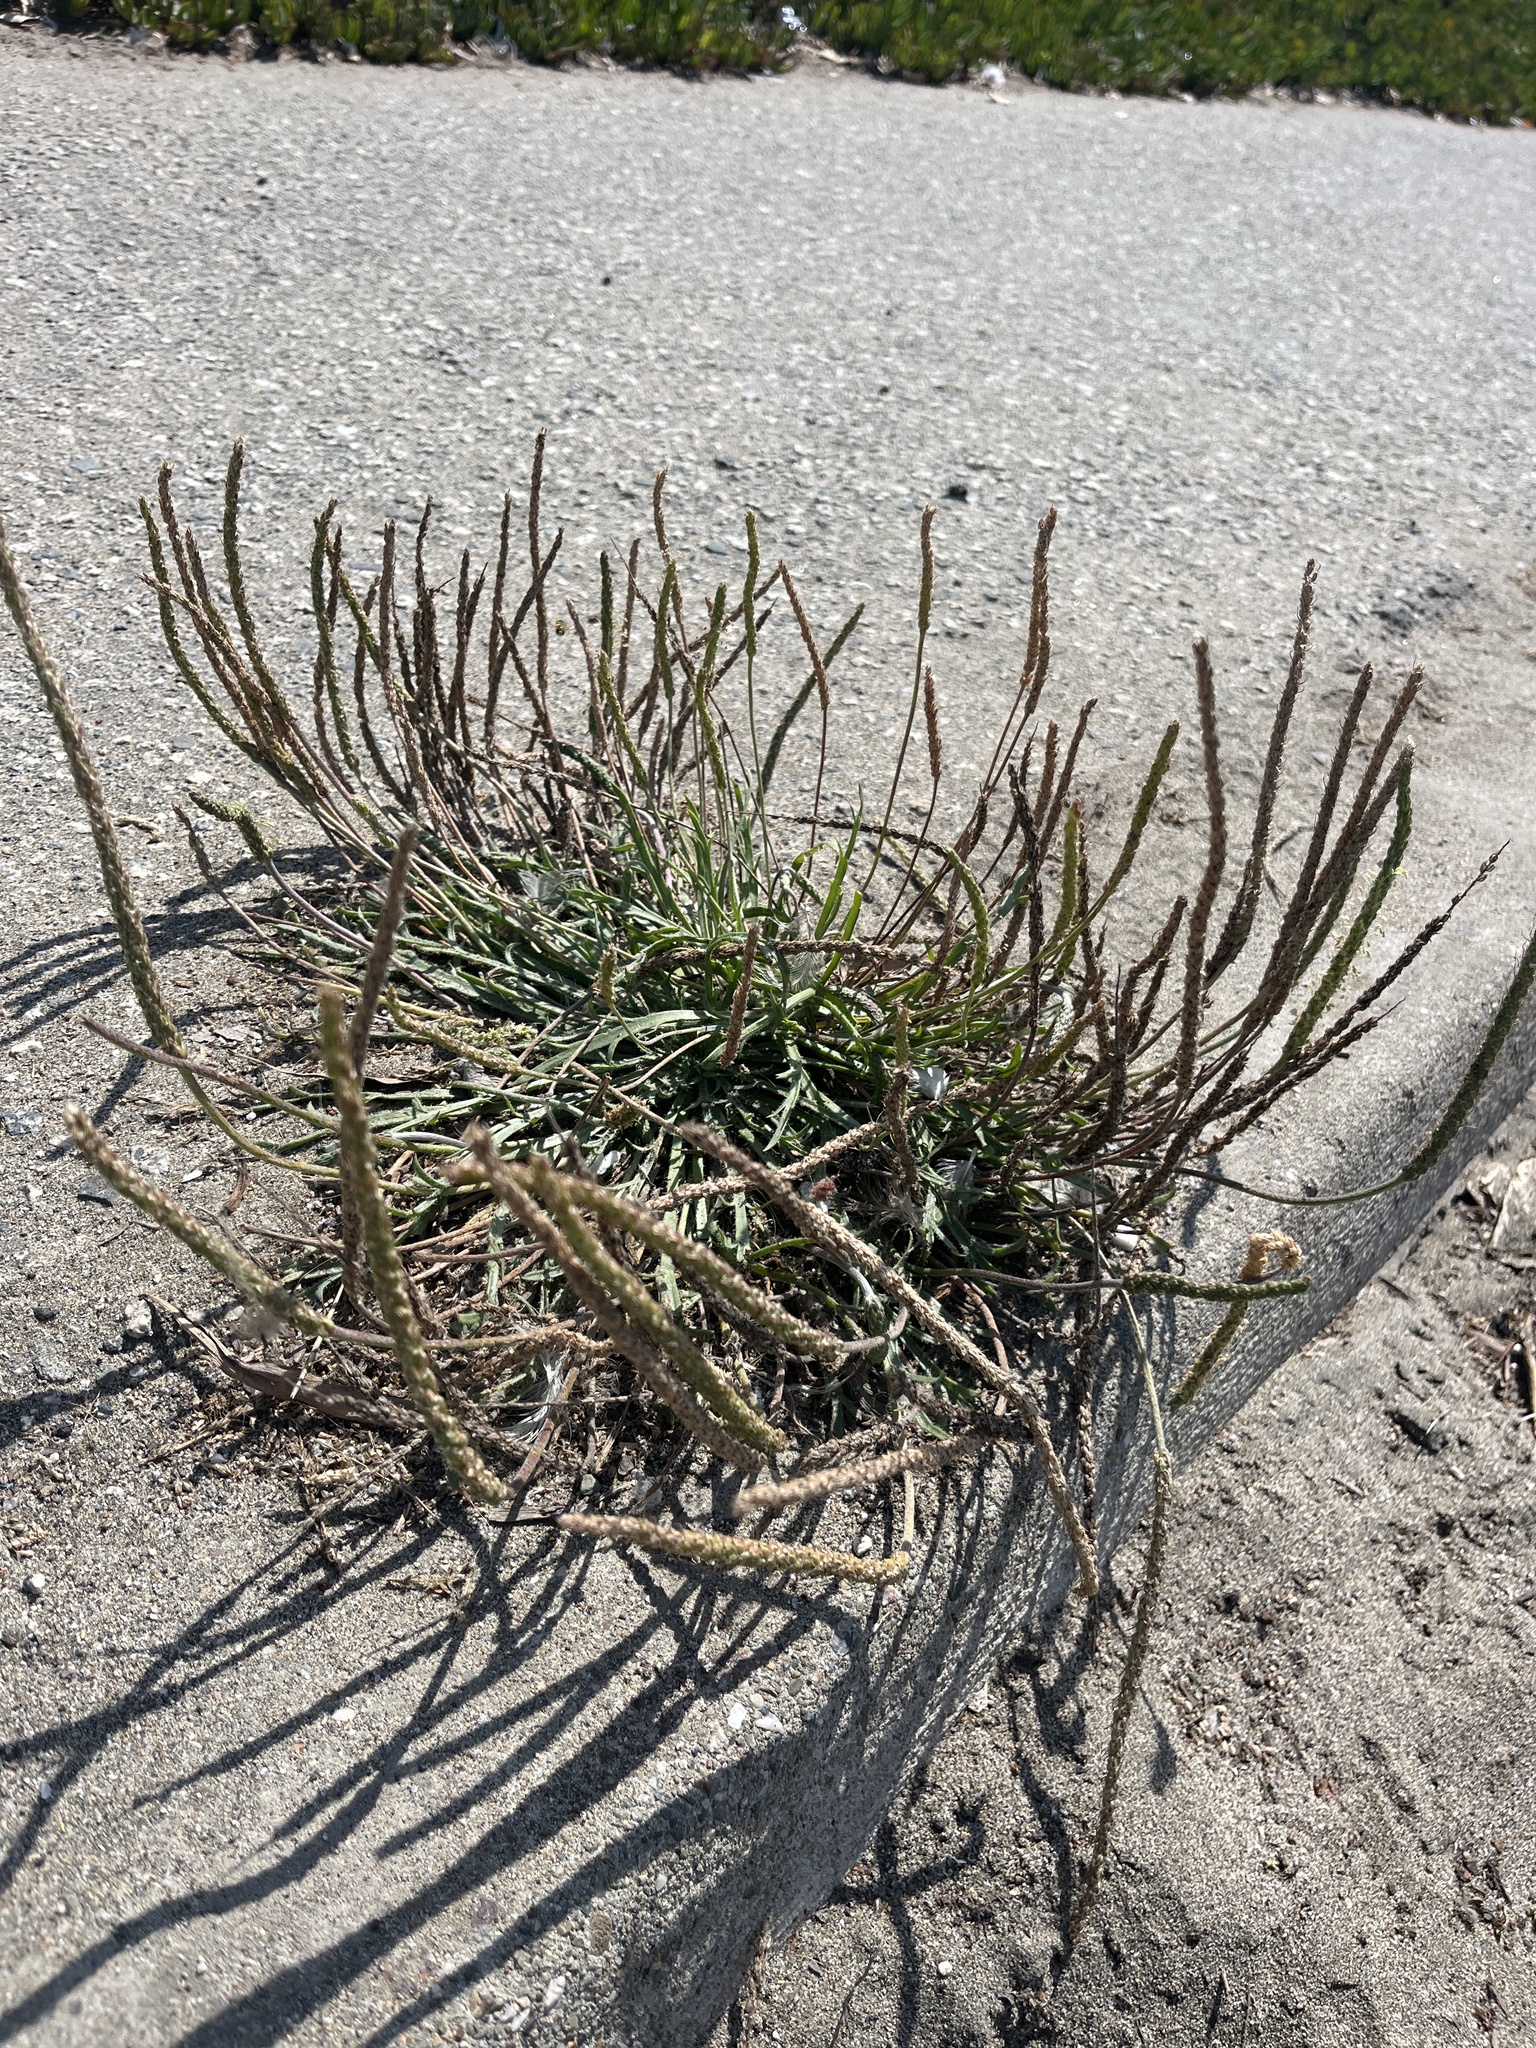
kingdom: Plantae
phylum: Tracheophyta
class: Magnoliopsida
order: Lamiales
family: Plantaginaceae
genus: Plantago
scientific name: Plantago coronopus
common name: Buck's-horn plantain
